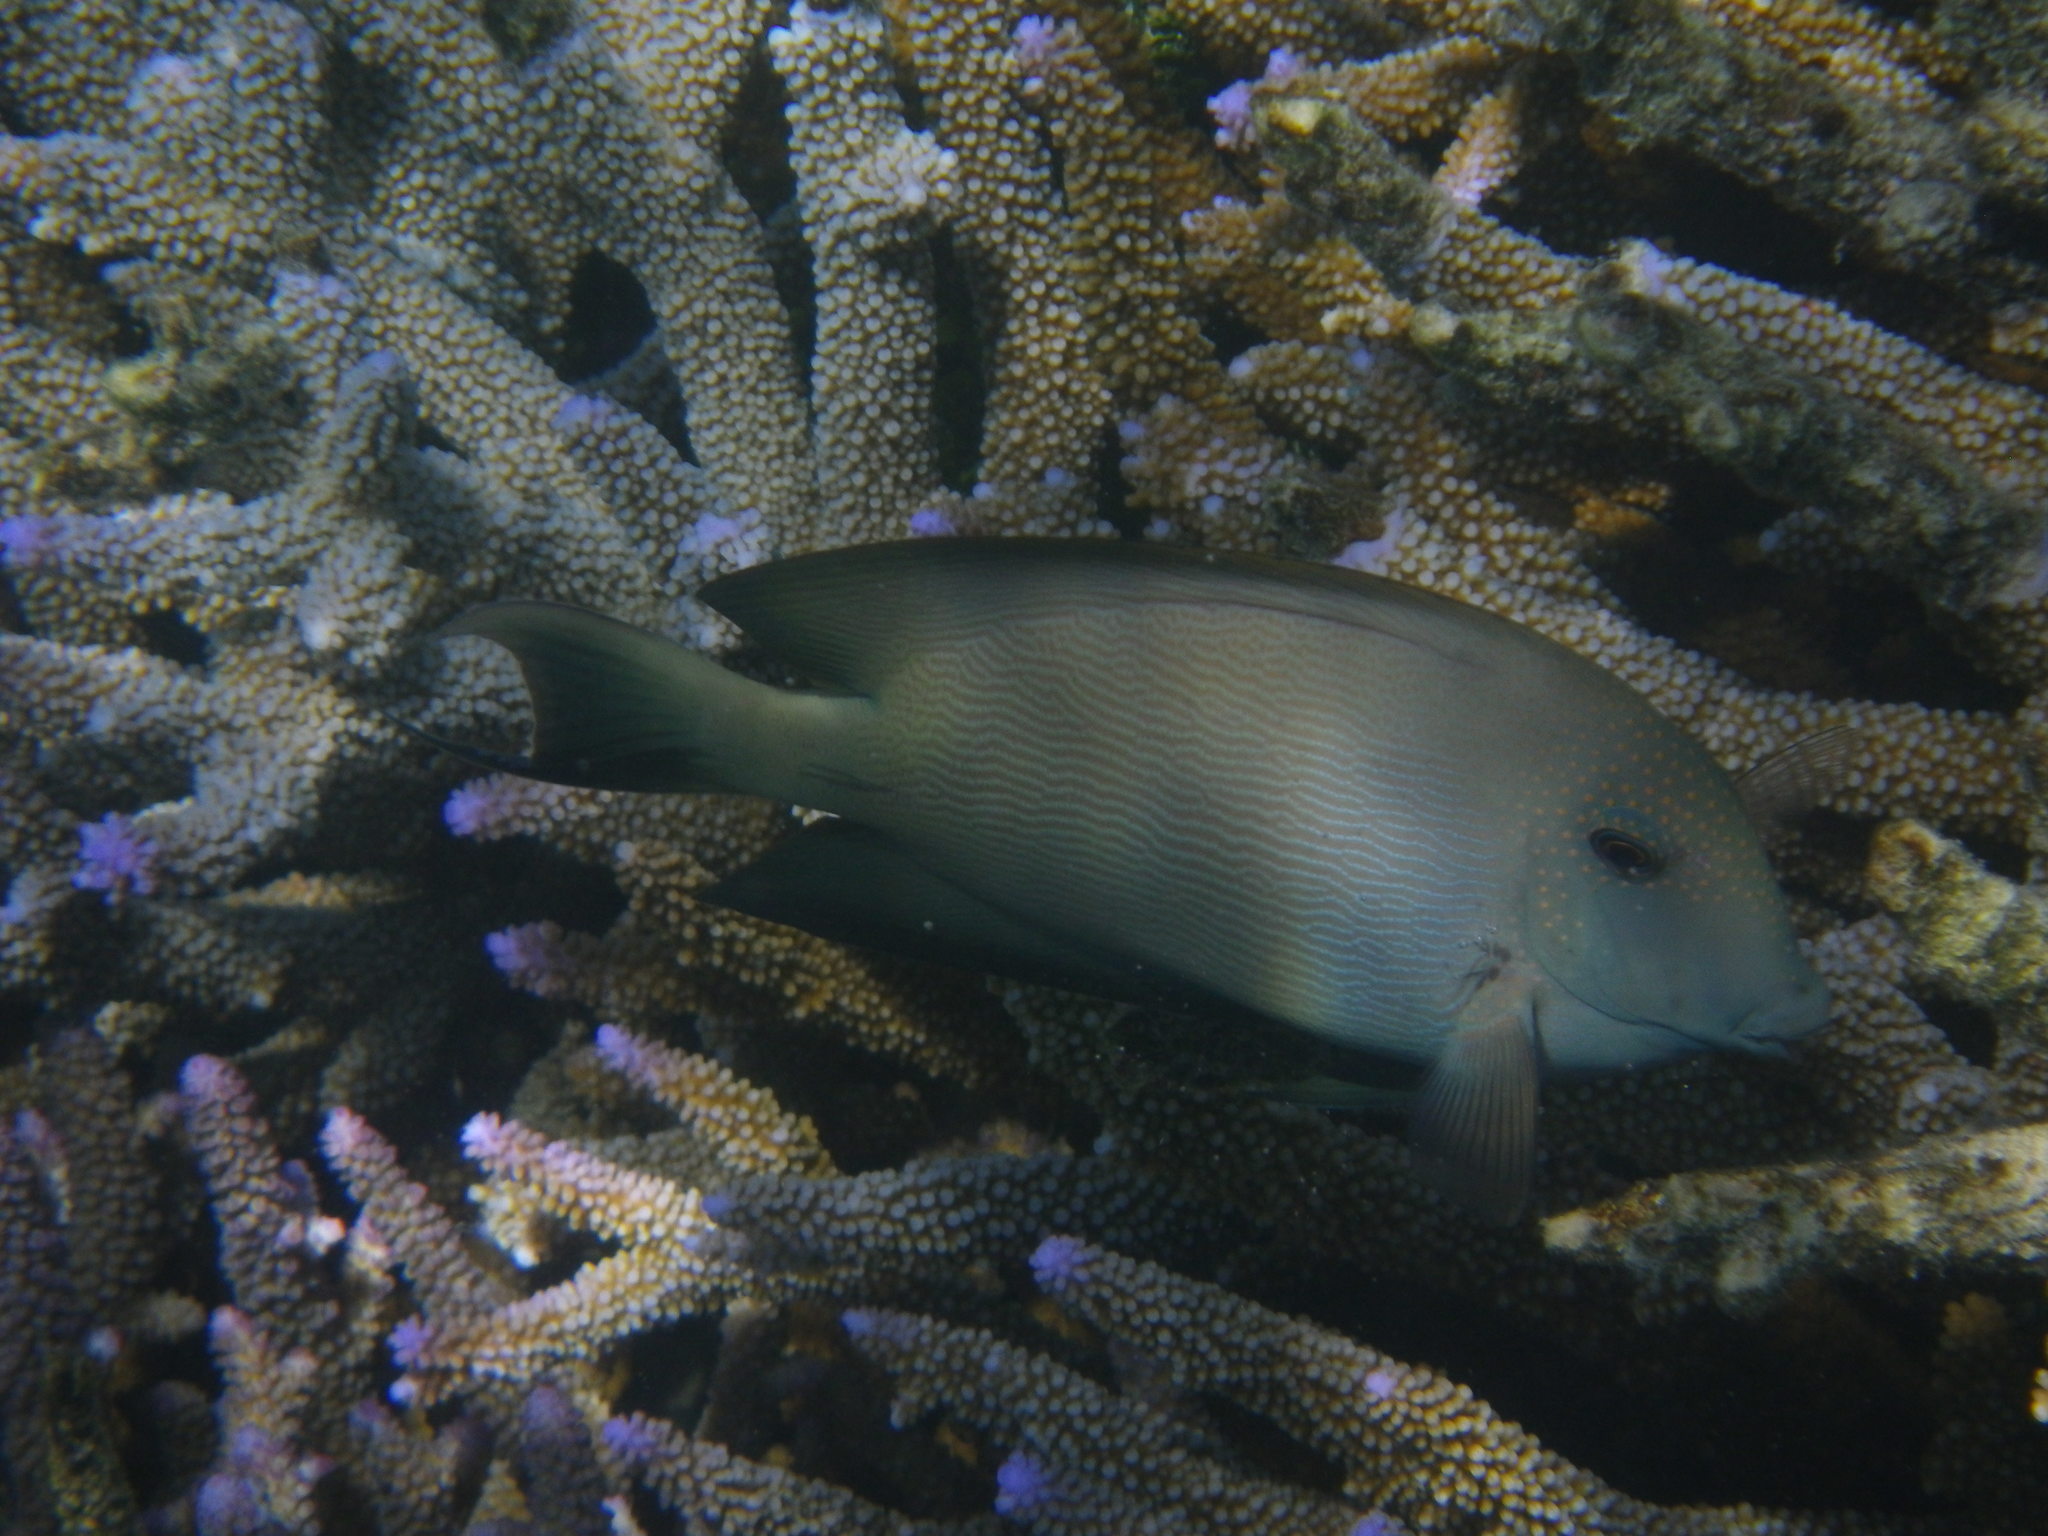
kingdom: Animalia
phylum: Chordata
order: Perciformes
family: Acanthuridae
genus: Ctenochaetus
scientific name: Ctenochaetus striatus
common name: Bristle-toothed surgeonfish
